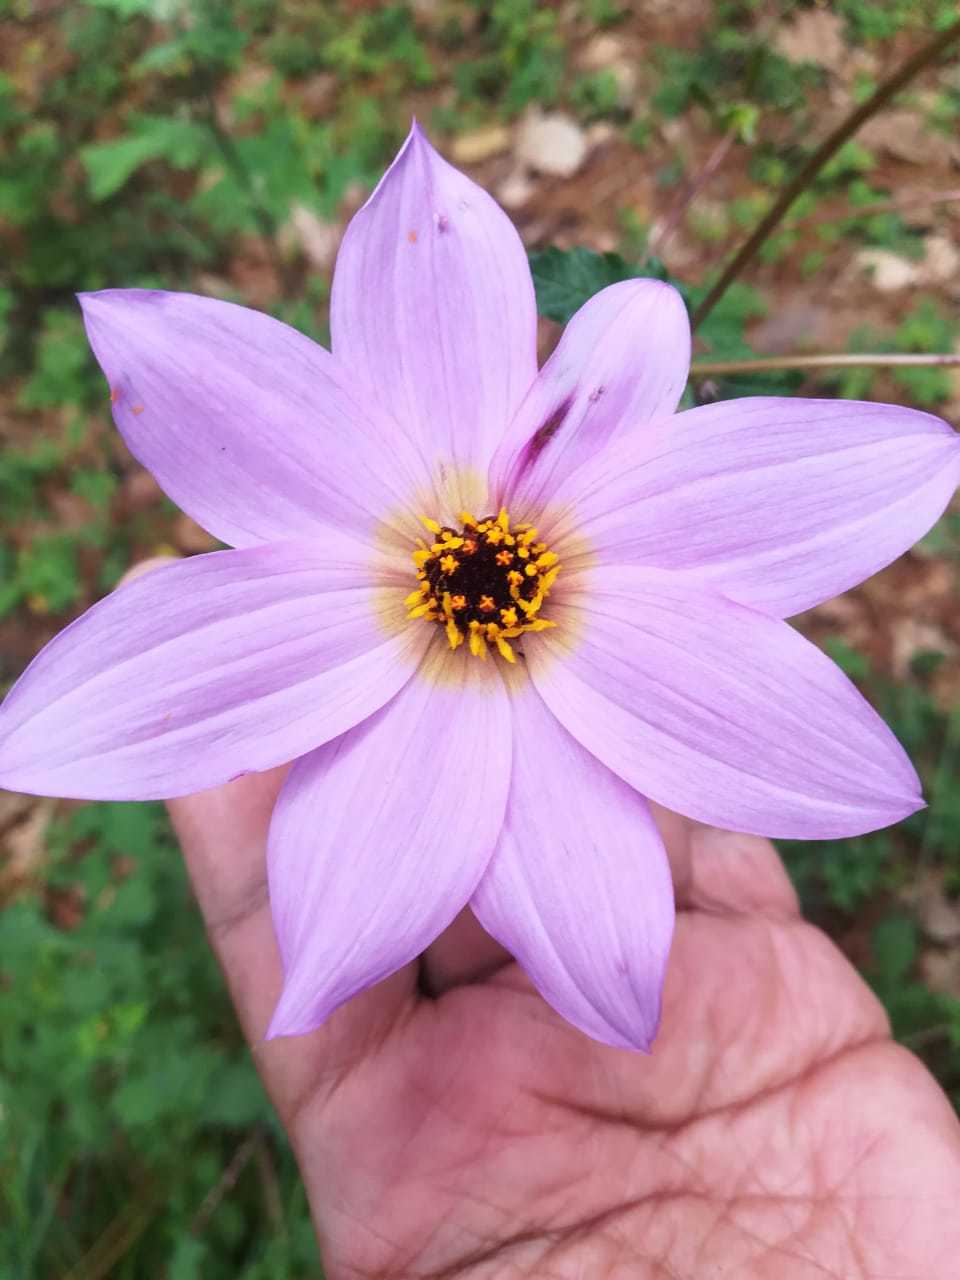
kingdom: Plantae
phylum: Tracheophyta
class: Magnoliopsida
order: Asterales
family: Asteraceae
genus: Dahlia
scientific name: Dahlia australis
